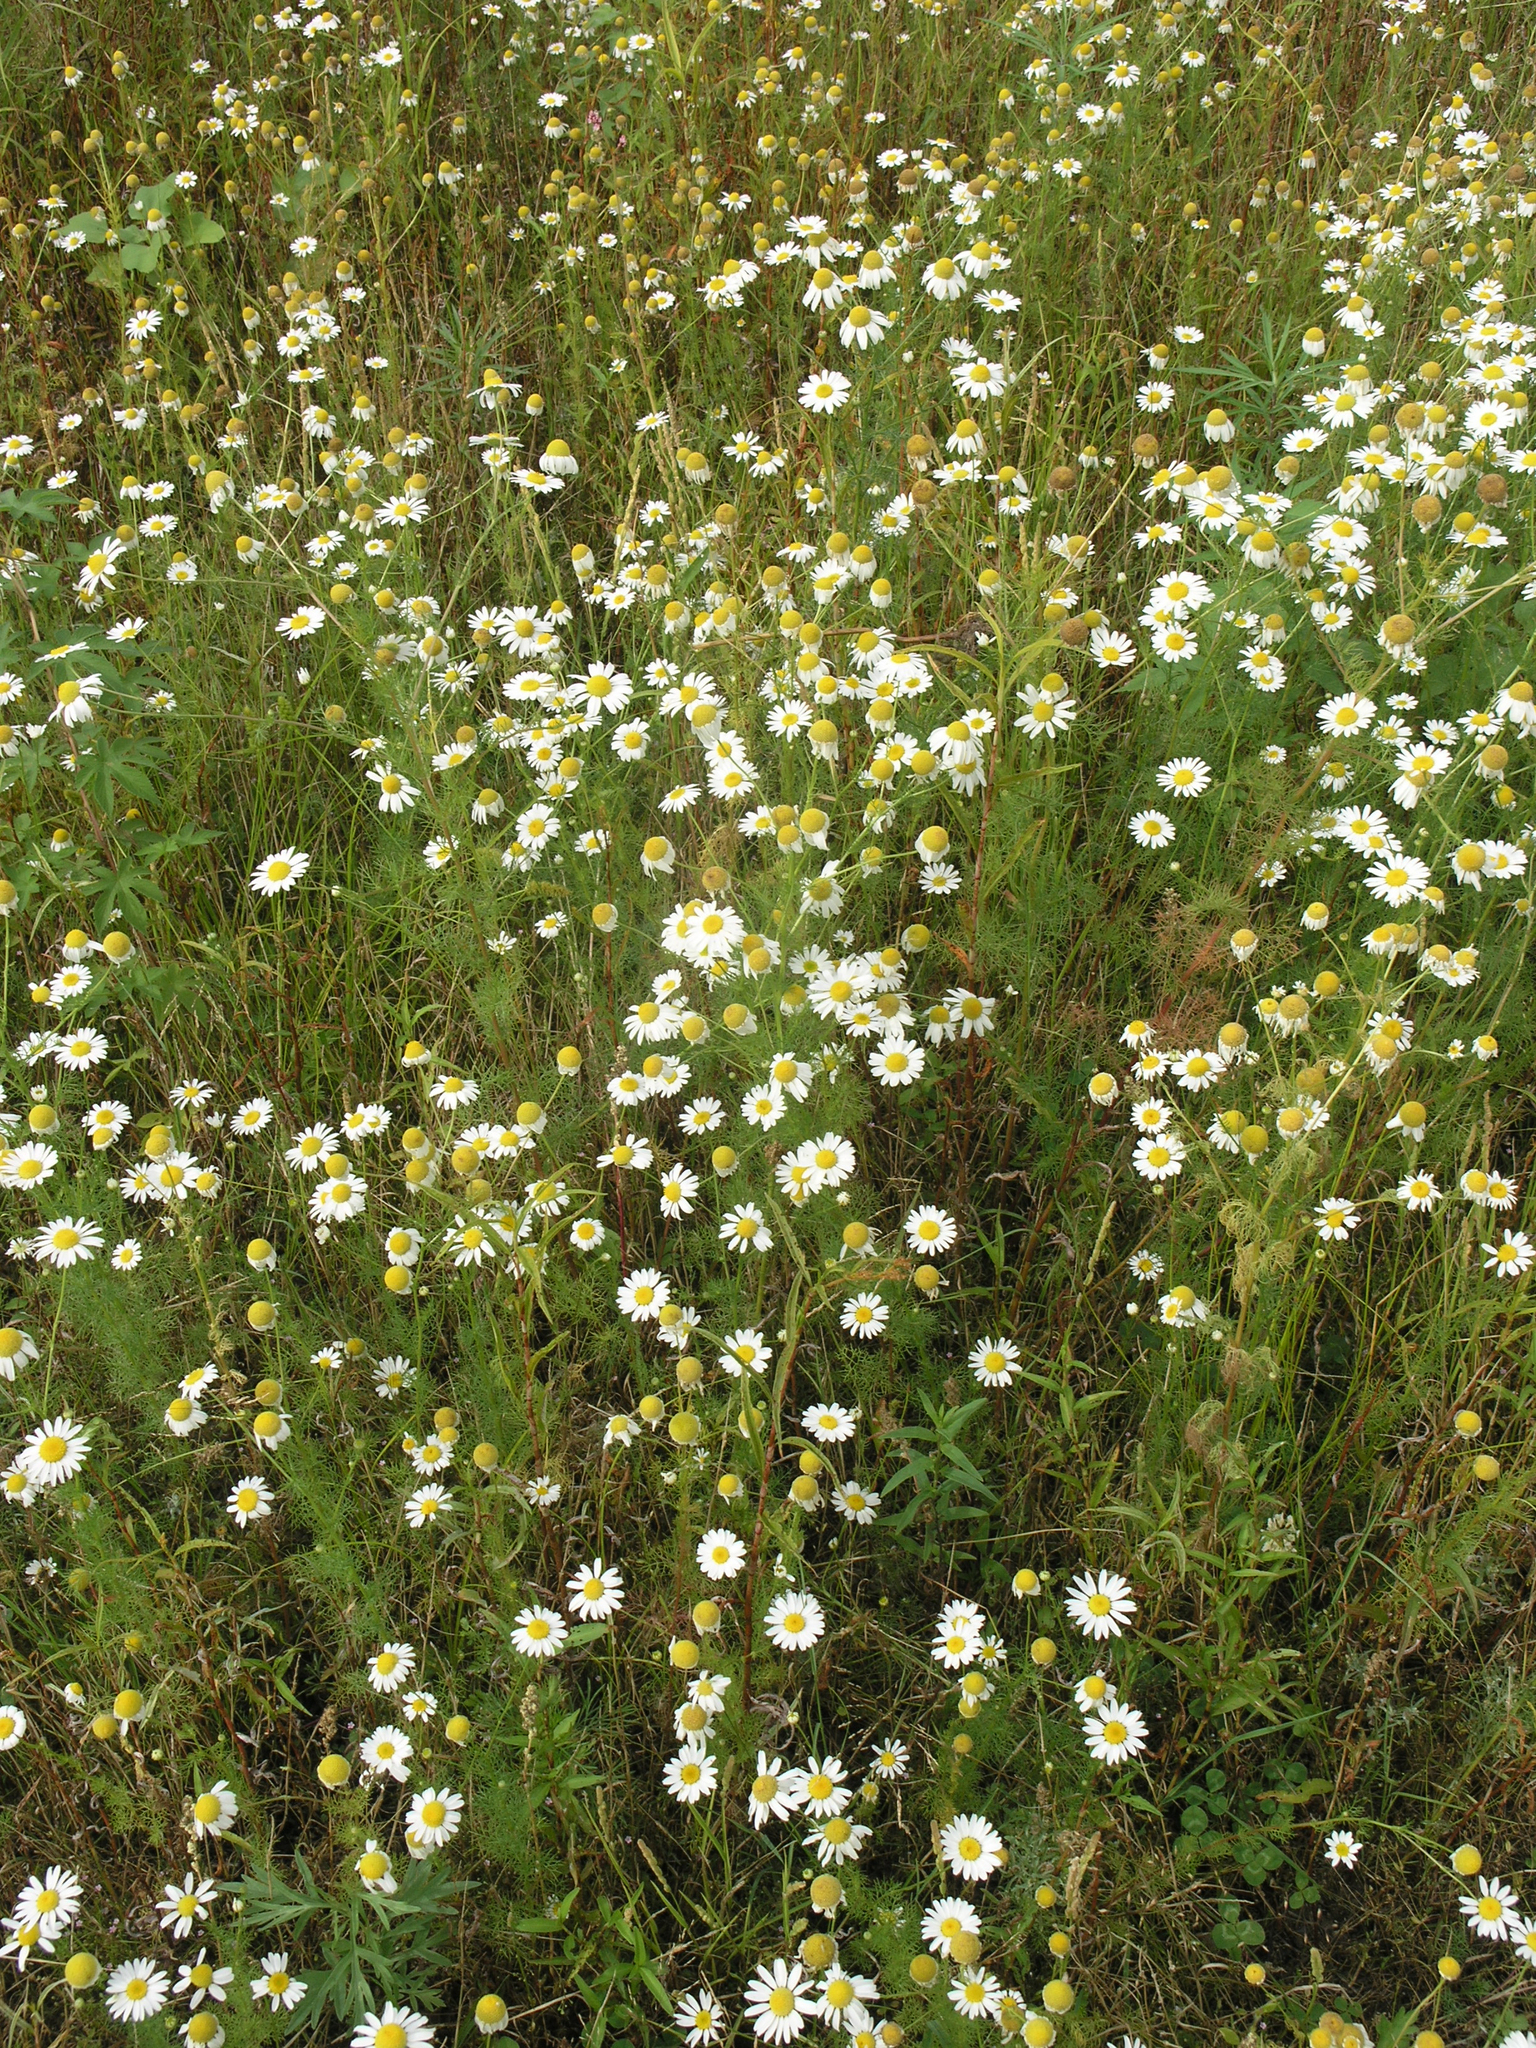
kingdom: Plantae
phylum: Tracheophyta
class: Magnoliopsida
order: Asterales
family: Asteraceae
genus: Tripleurospermum
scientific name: Tripleurospermum inodorum
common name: Scentless mayweed
